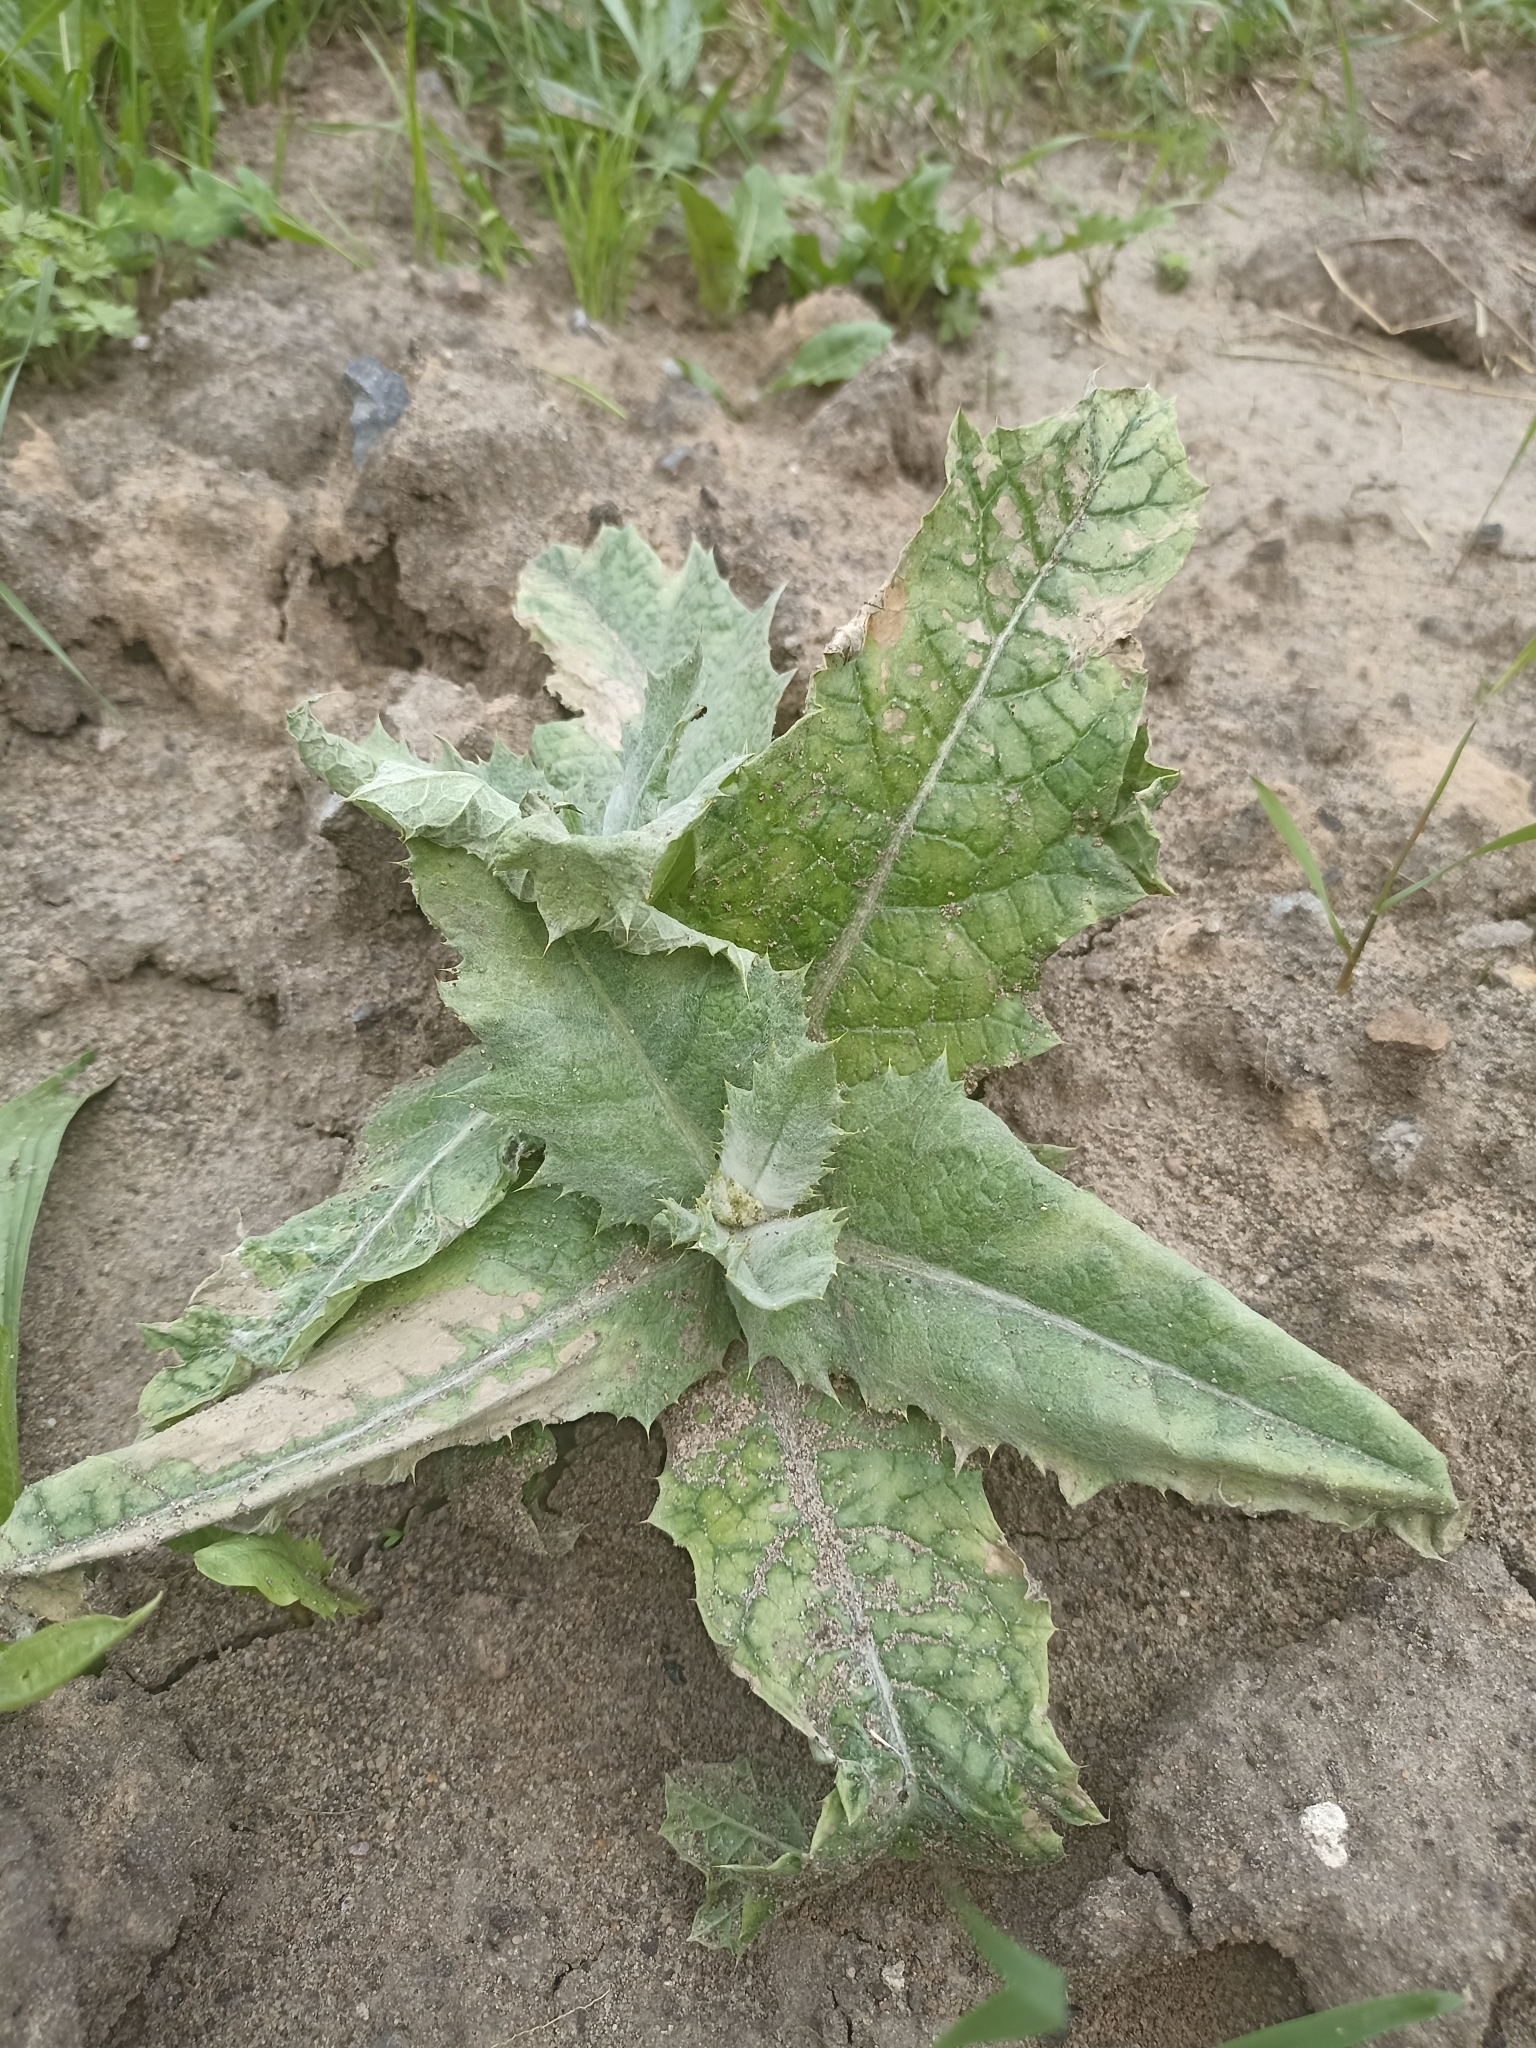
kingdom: Plantae
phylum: Tracheophyta
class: Magnoliopsida
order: Asterales
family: Asteraceae
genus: Onopordum
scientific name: Onopordum acanthium
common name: Scotch thistle
